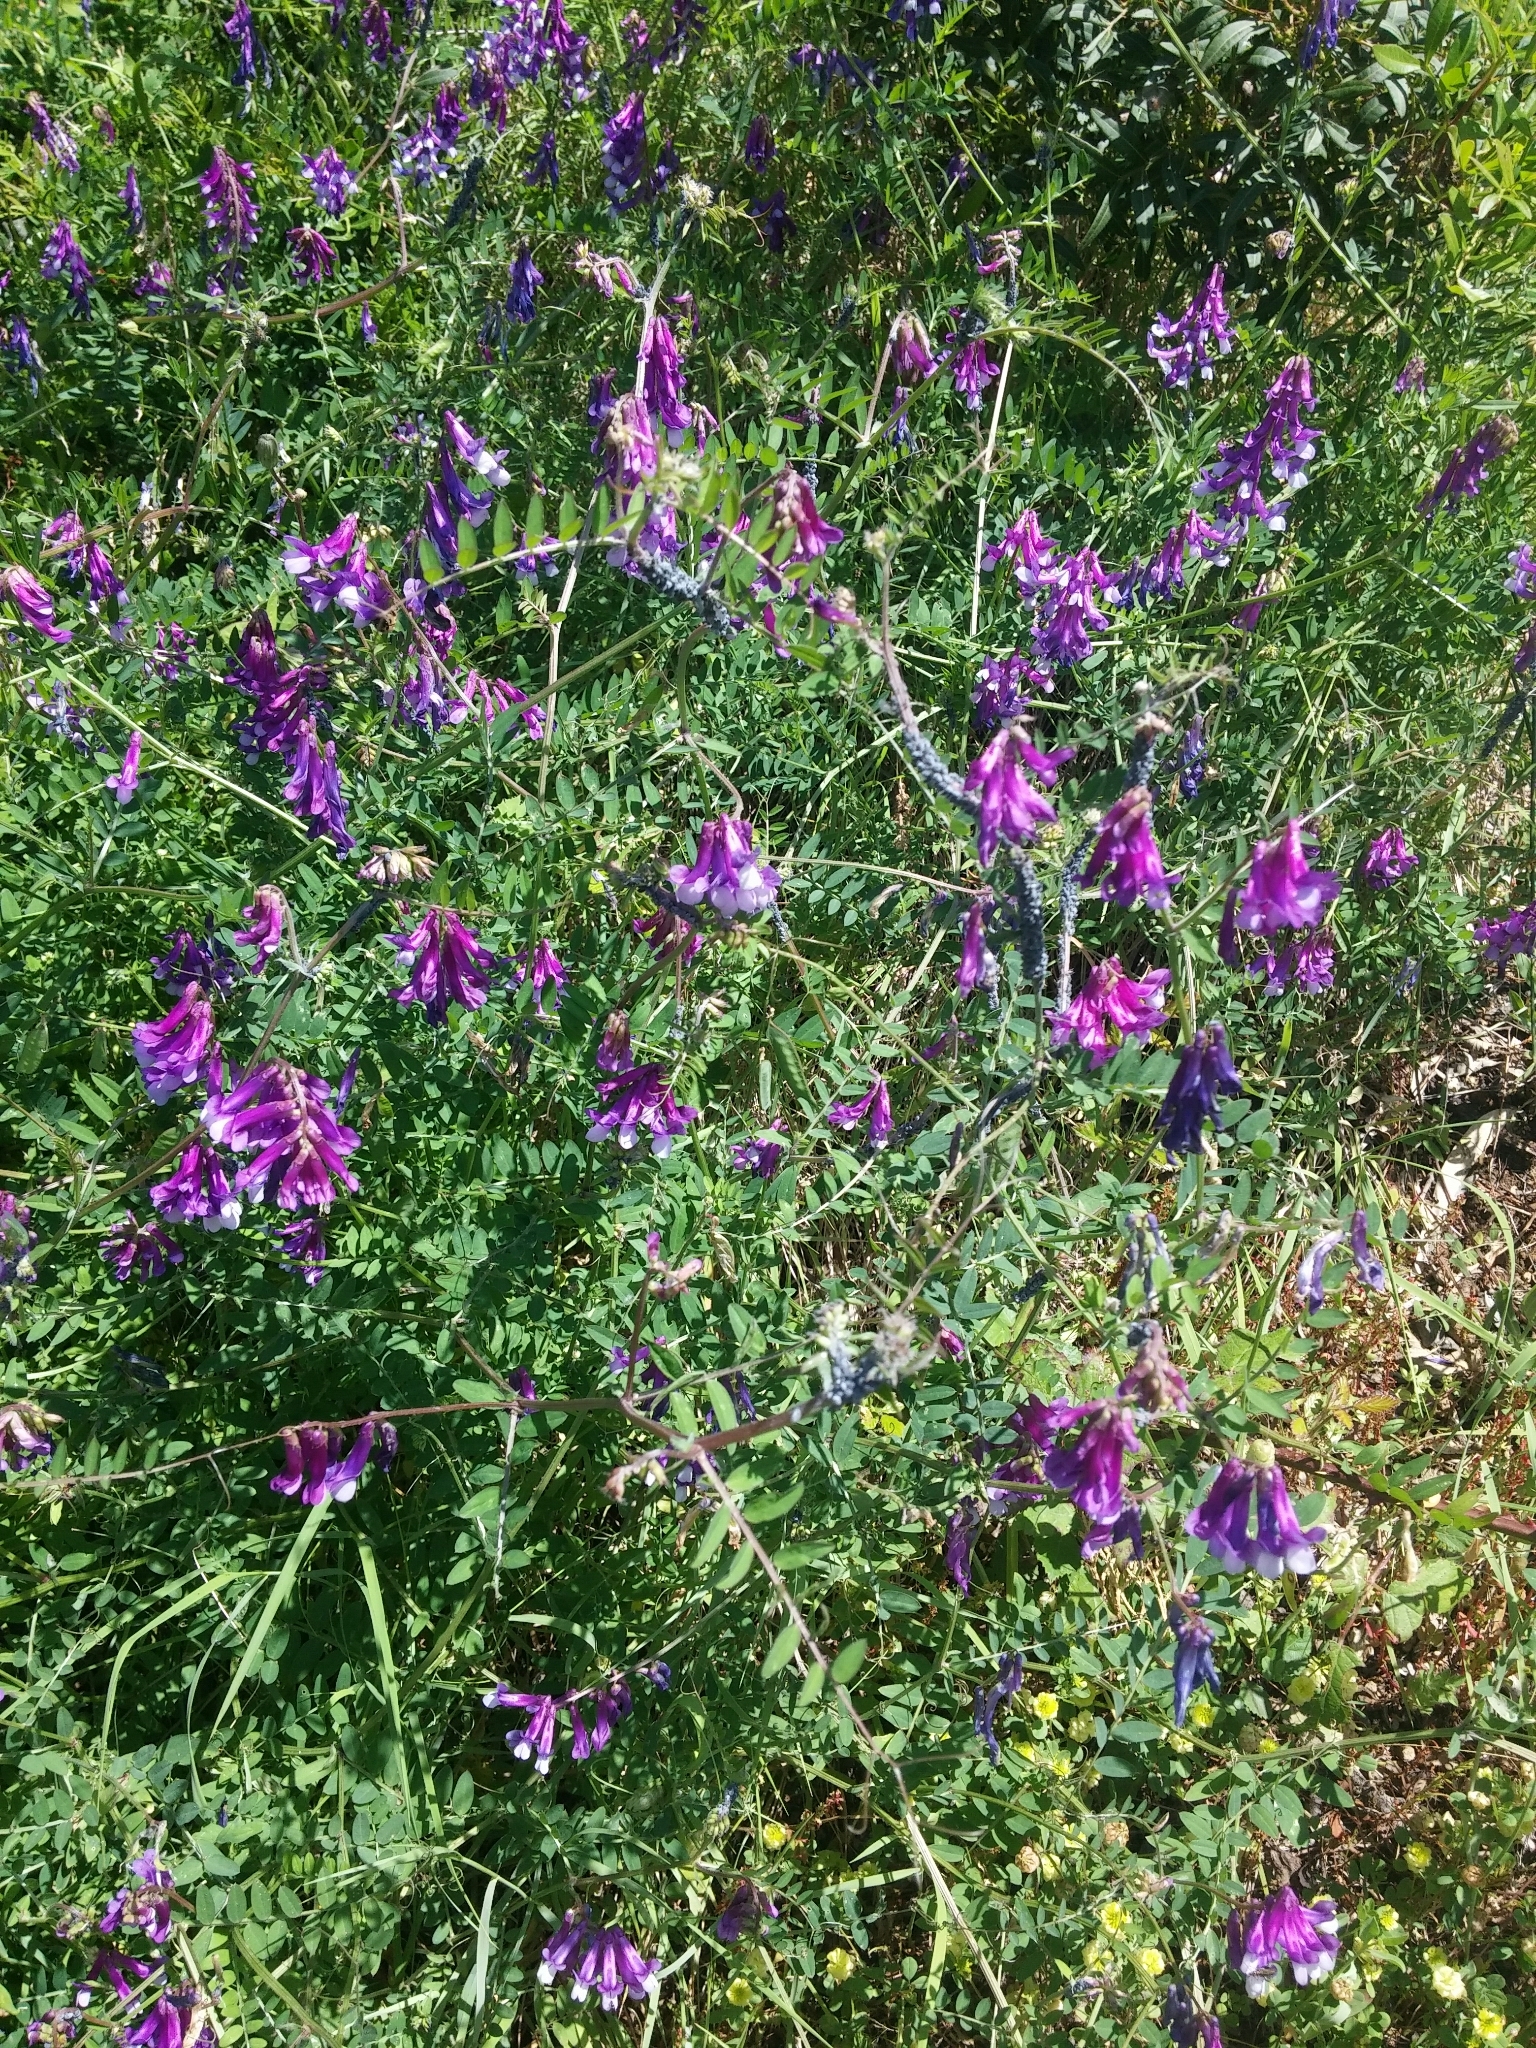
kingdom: Plantae
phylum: Tracheophyta
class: Magnoliopsida
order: Fabales
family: Fabaceae
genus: Vicia
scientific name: Vicia cracca
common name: Bird vetch
